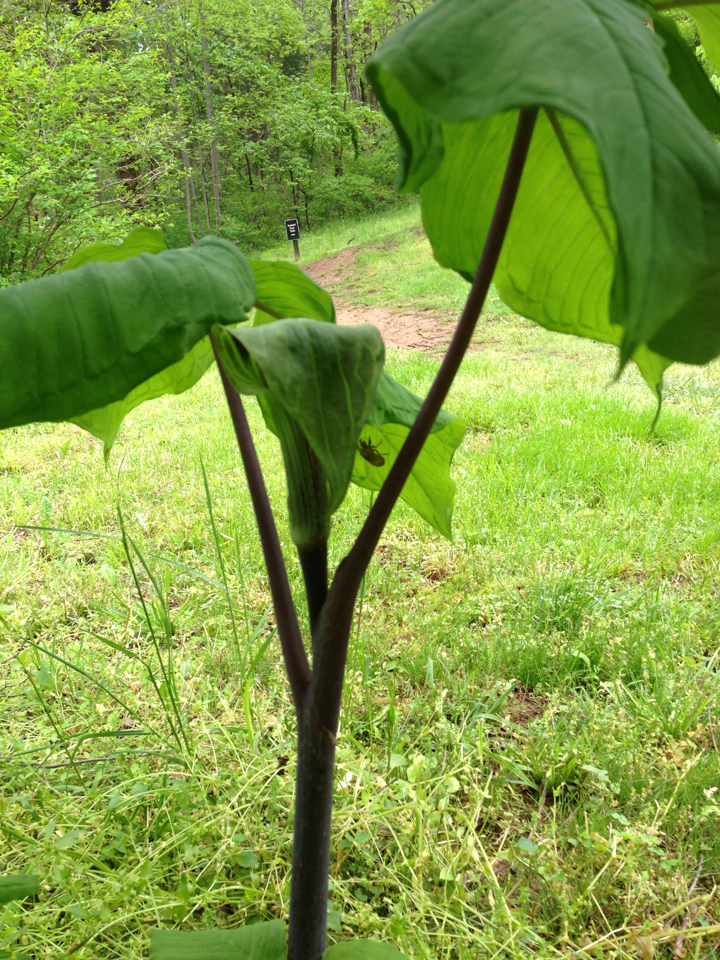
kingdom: Plantae
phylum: Tracheophyta
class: Liliopsida
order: Alismatales
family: Araceae
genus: Arisaema
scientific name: Arisaema triphyllum
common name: Jack-in-the-pulpit
